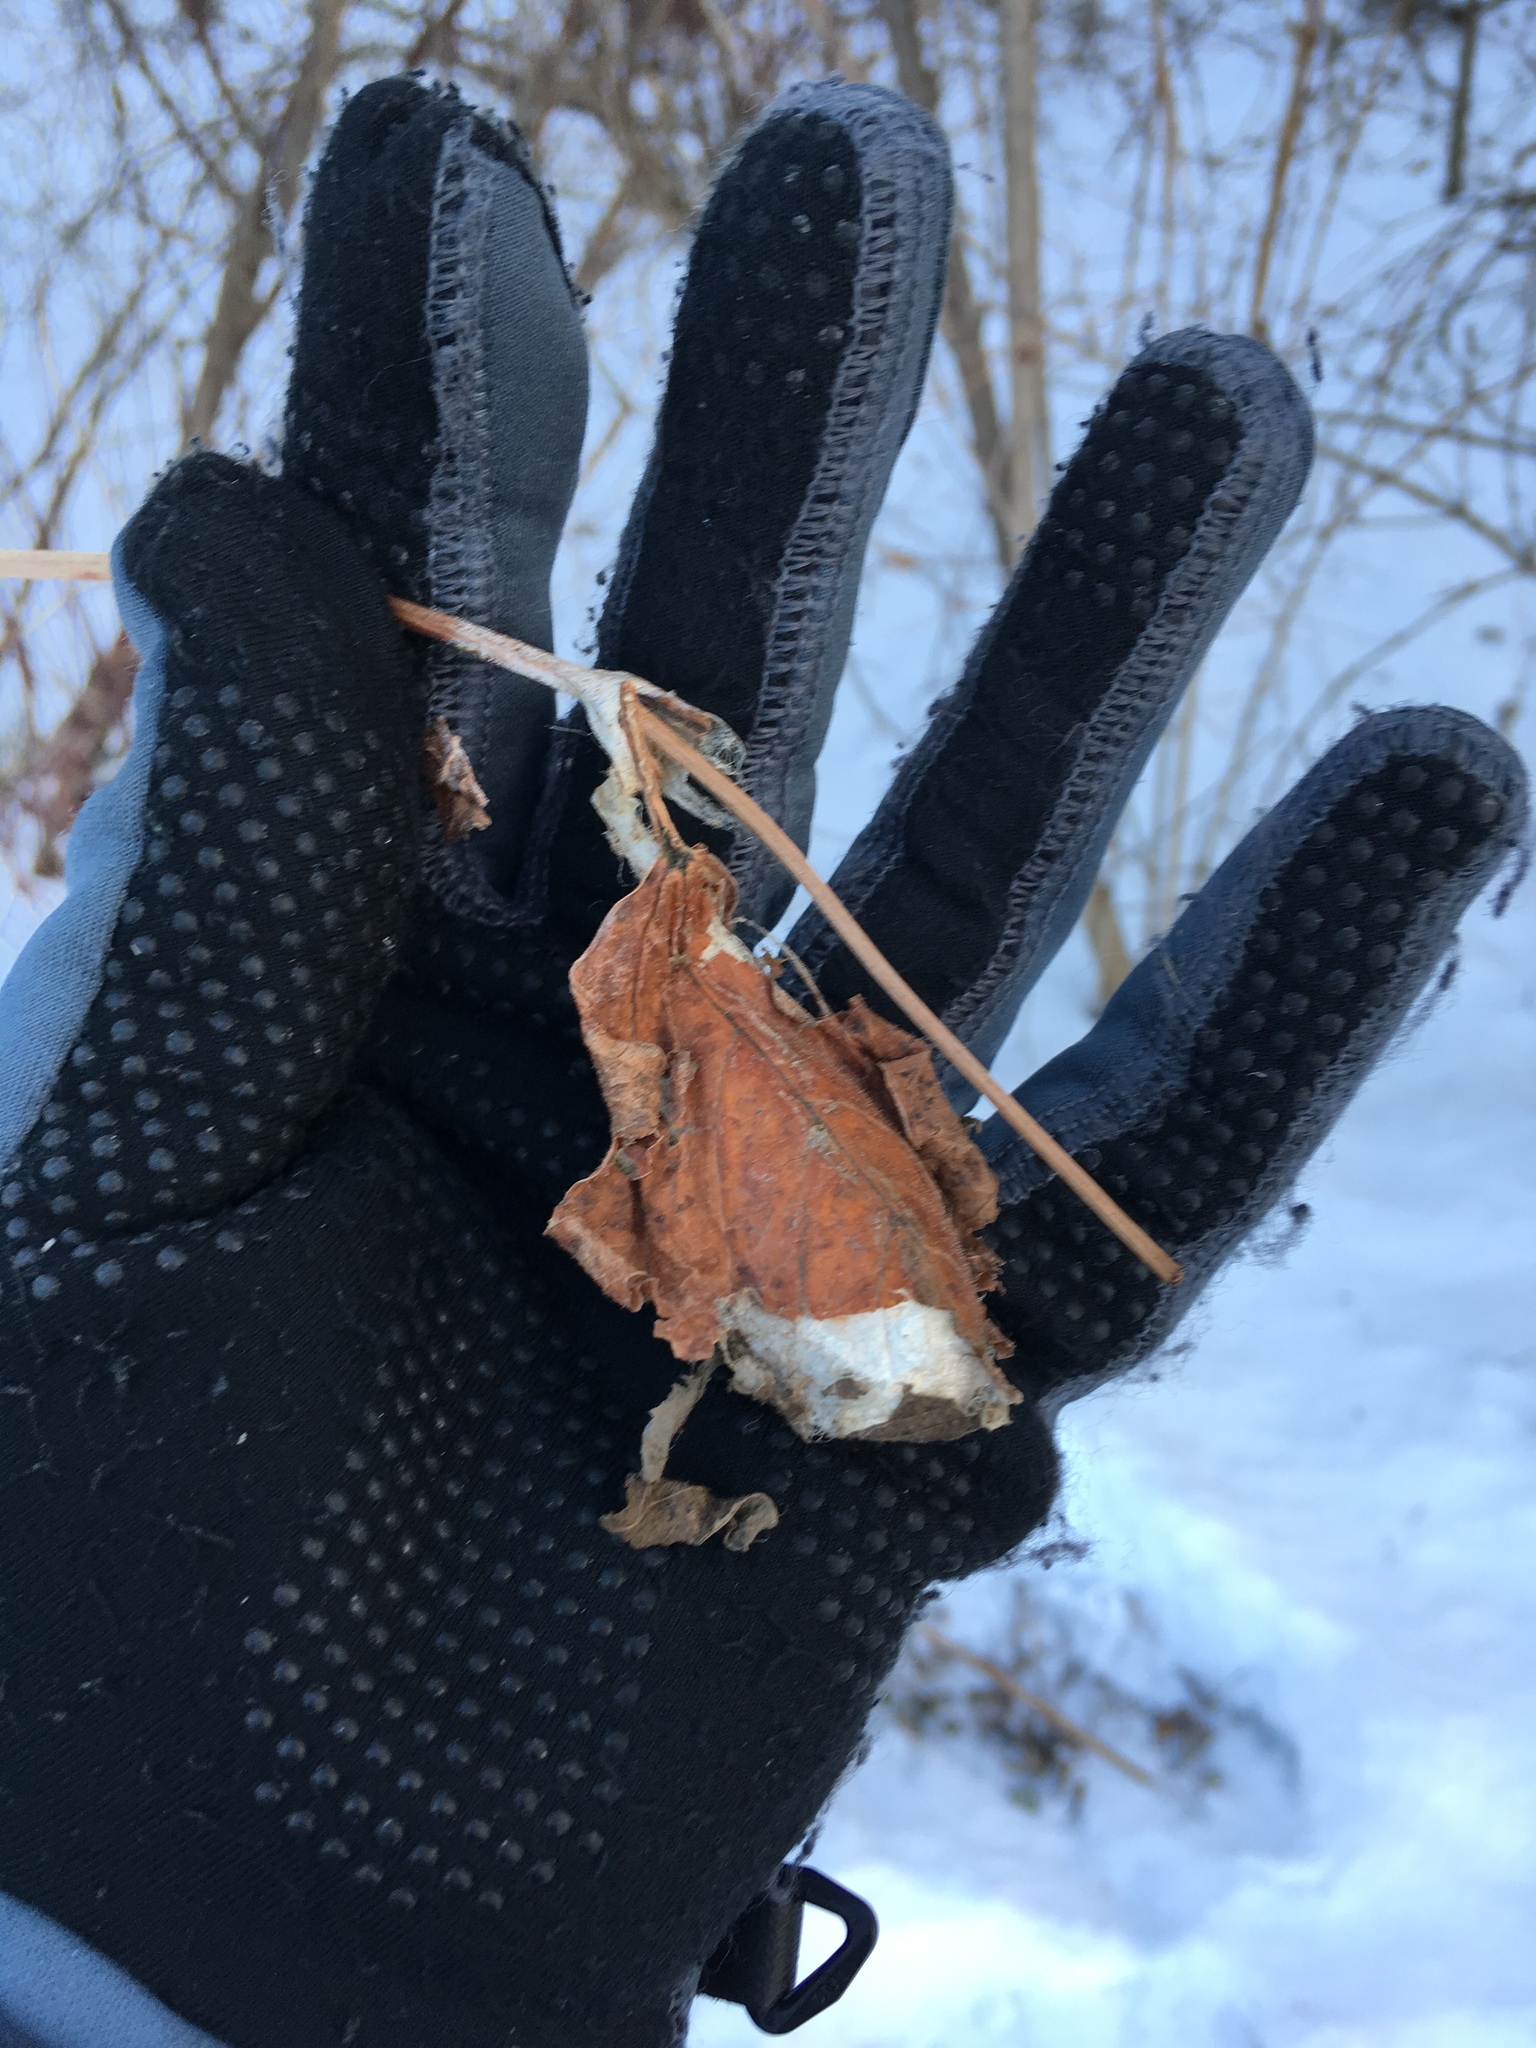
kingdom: Animalia
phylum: Arthropoda
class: Insecta
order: Lepidoptera
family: Saturniidae
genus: Antheraea
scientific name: Antheraea polyphemus
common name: Polyphemus moth
